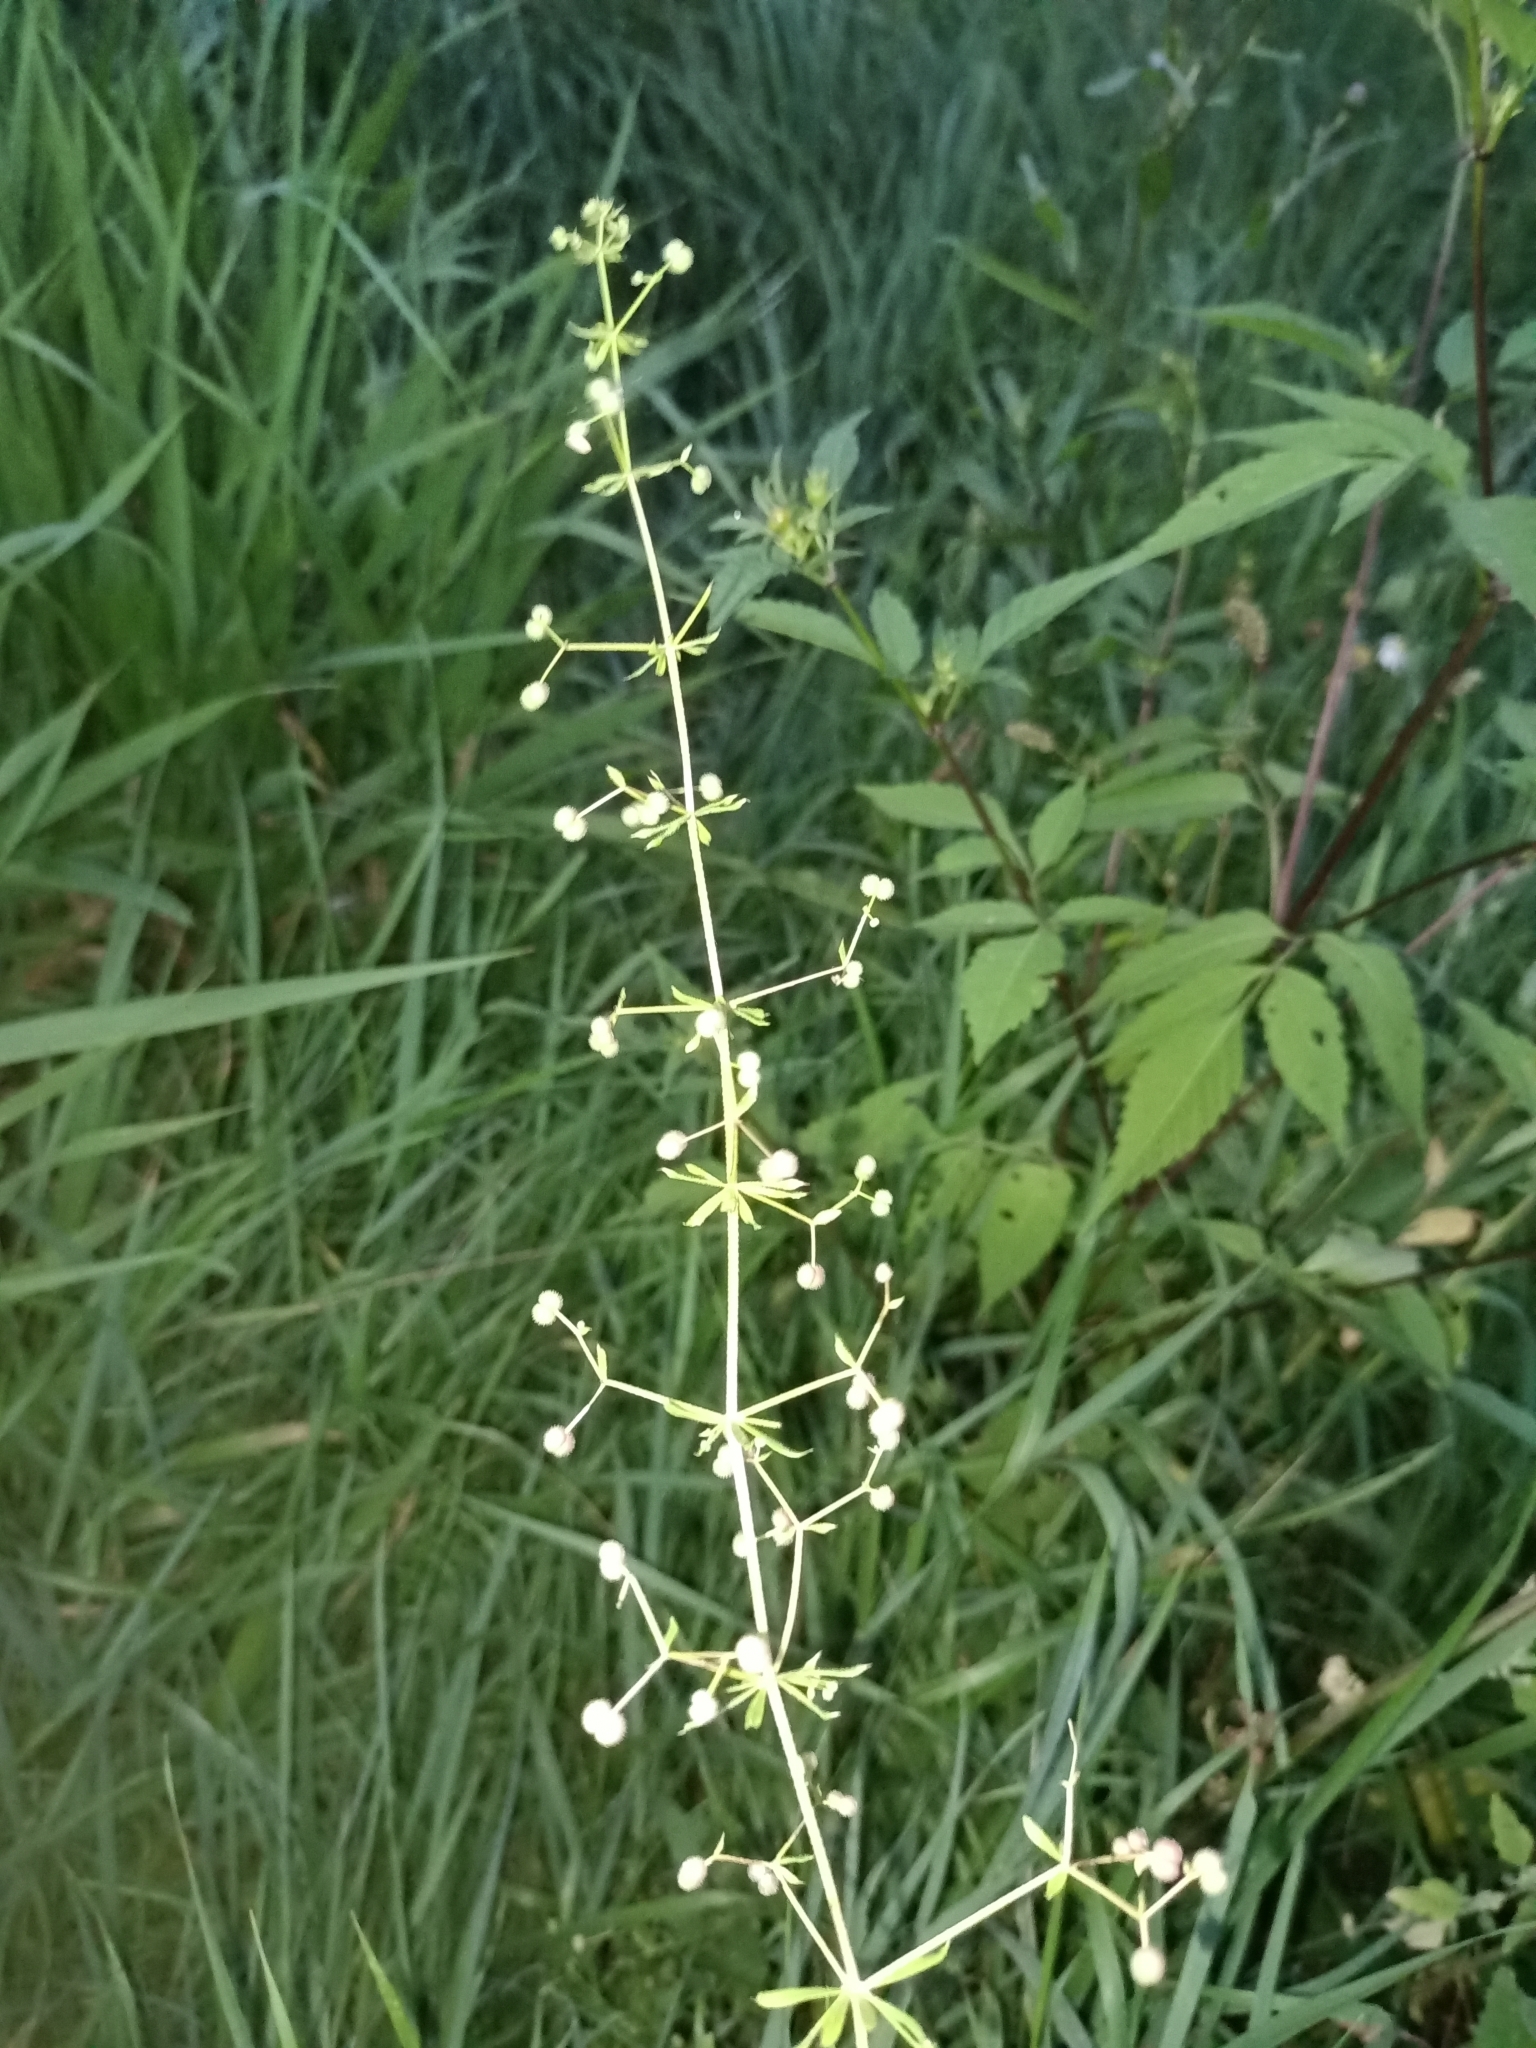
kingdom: Plantae
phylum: Tracheophyta
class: Magnoliopsida
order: Gentianales
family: Rubiaceae
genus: Galium
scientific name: Galium aparine
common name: Cleavers
